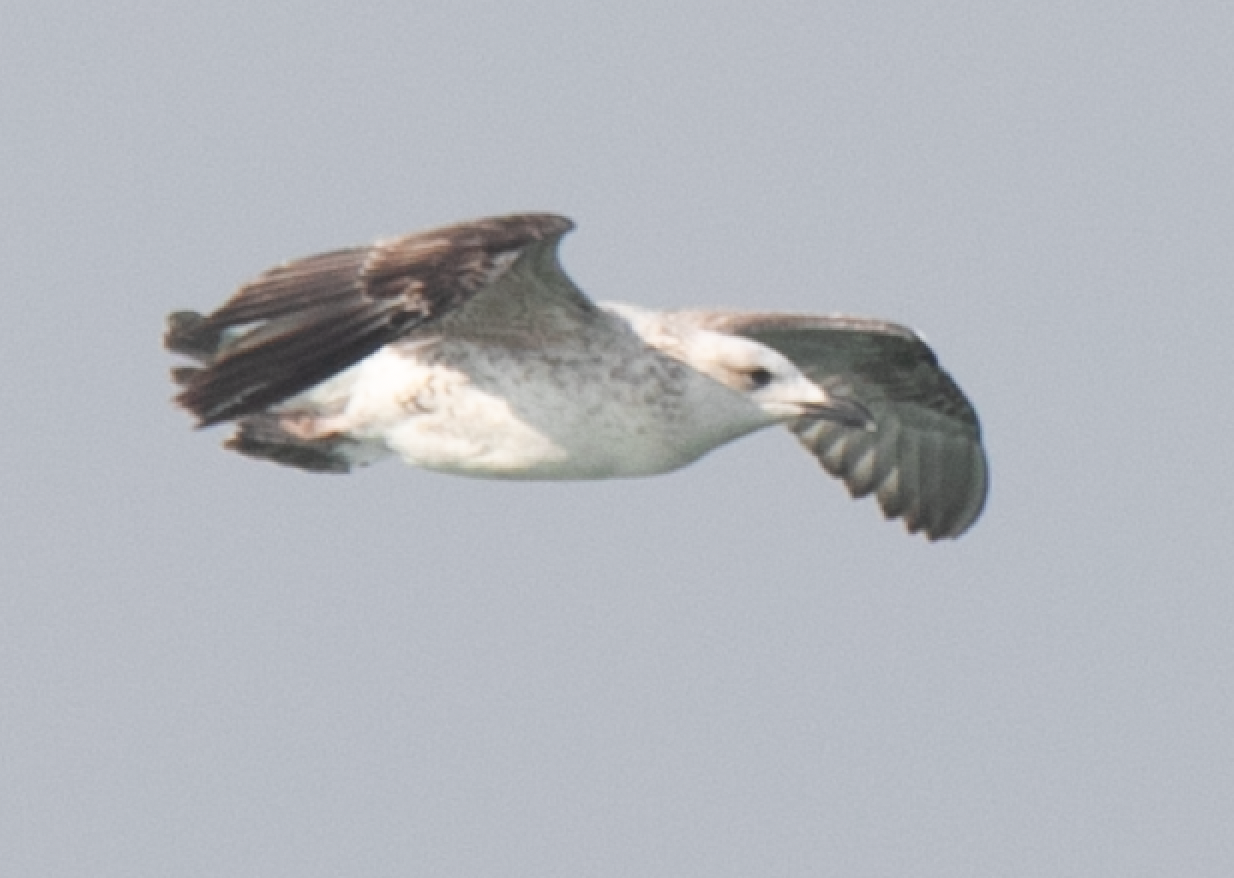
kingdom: Animalia
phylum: Chordata
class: Aves
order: Charadriiformes
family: Laridae
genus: Larus
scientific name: Larus michahellis
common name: Yellow-legged gull
